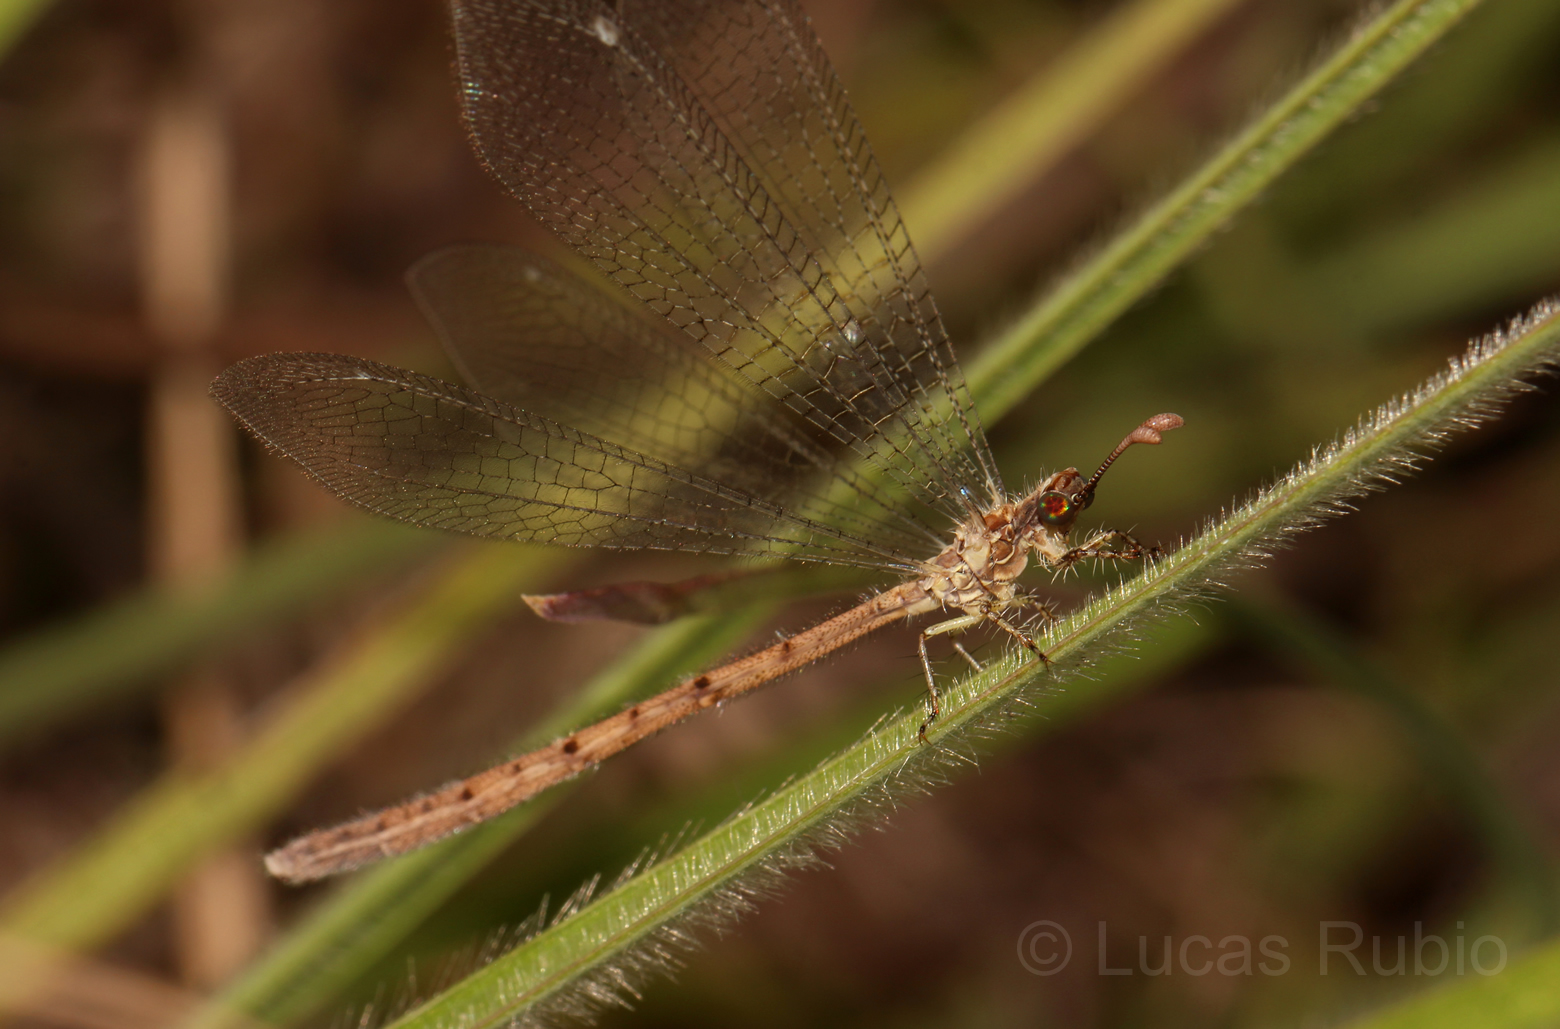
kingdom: Animalia
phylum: Arthropoda
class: Insecta
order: Neuroptera
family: Myrmeleontidae
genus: Austroleon
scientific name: Austroleon immitis
